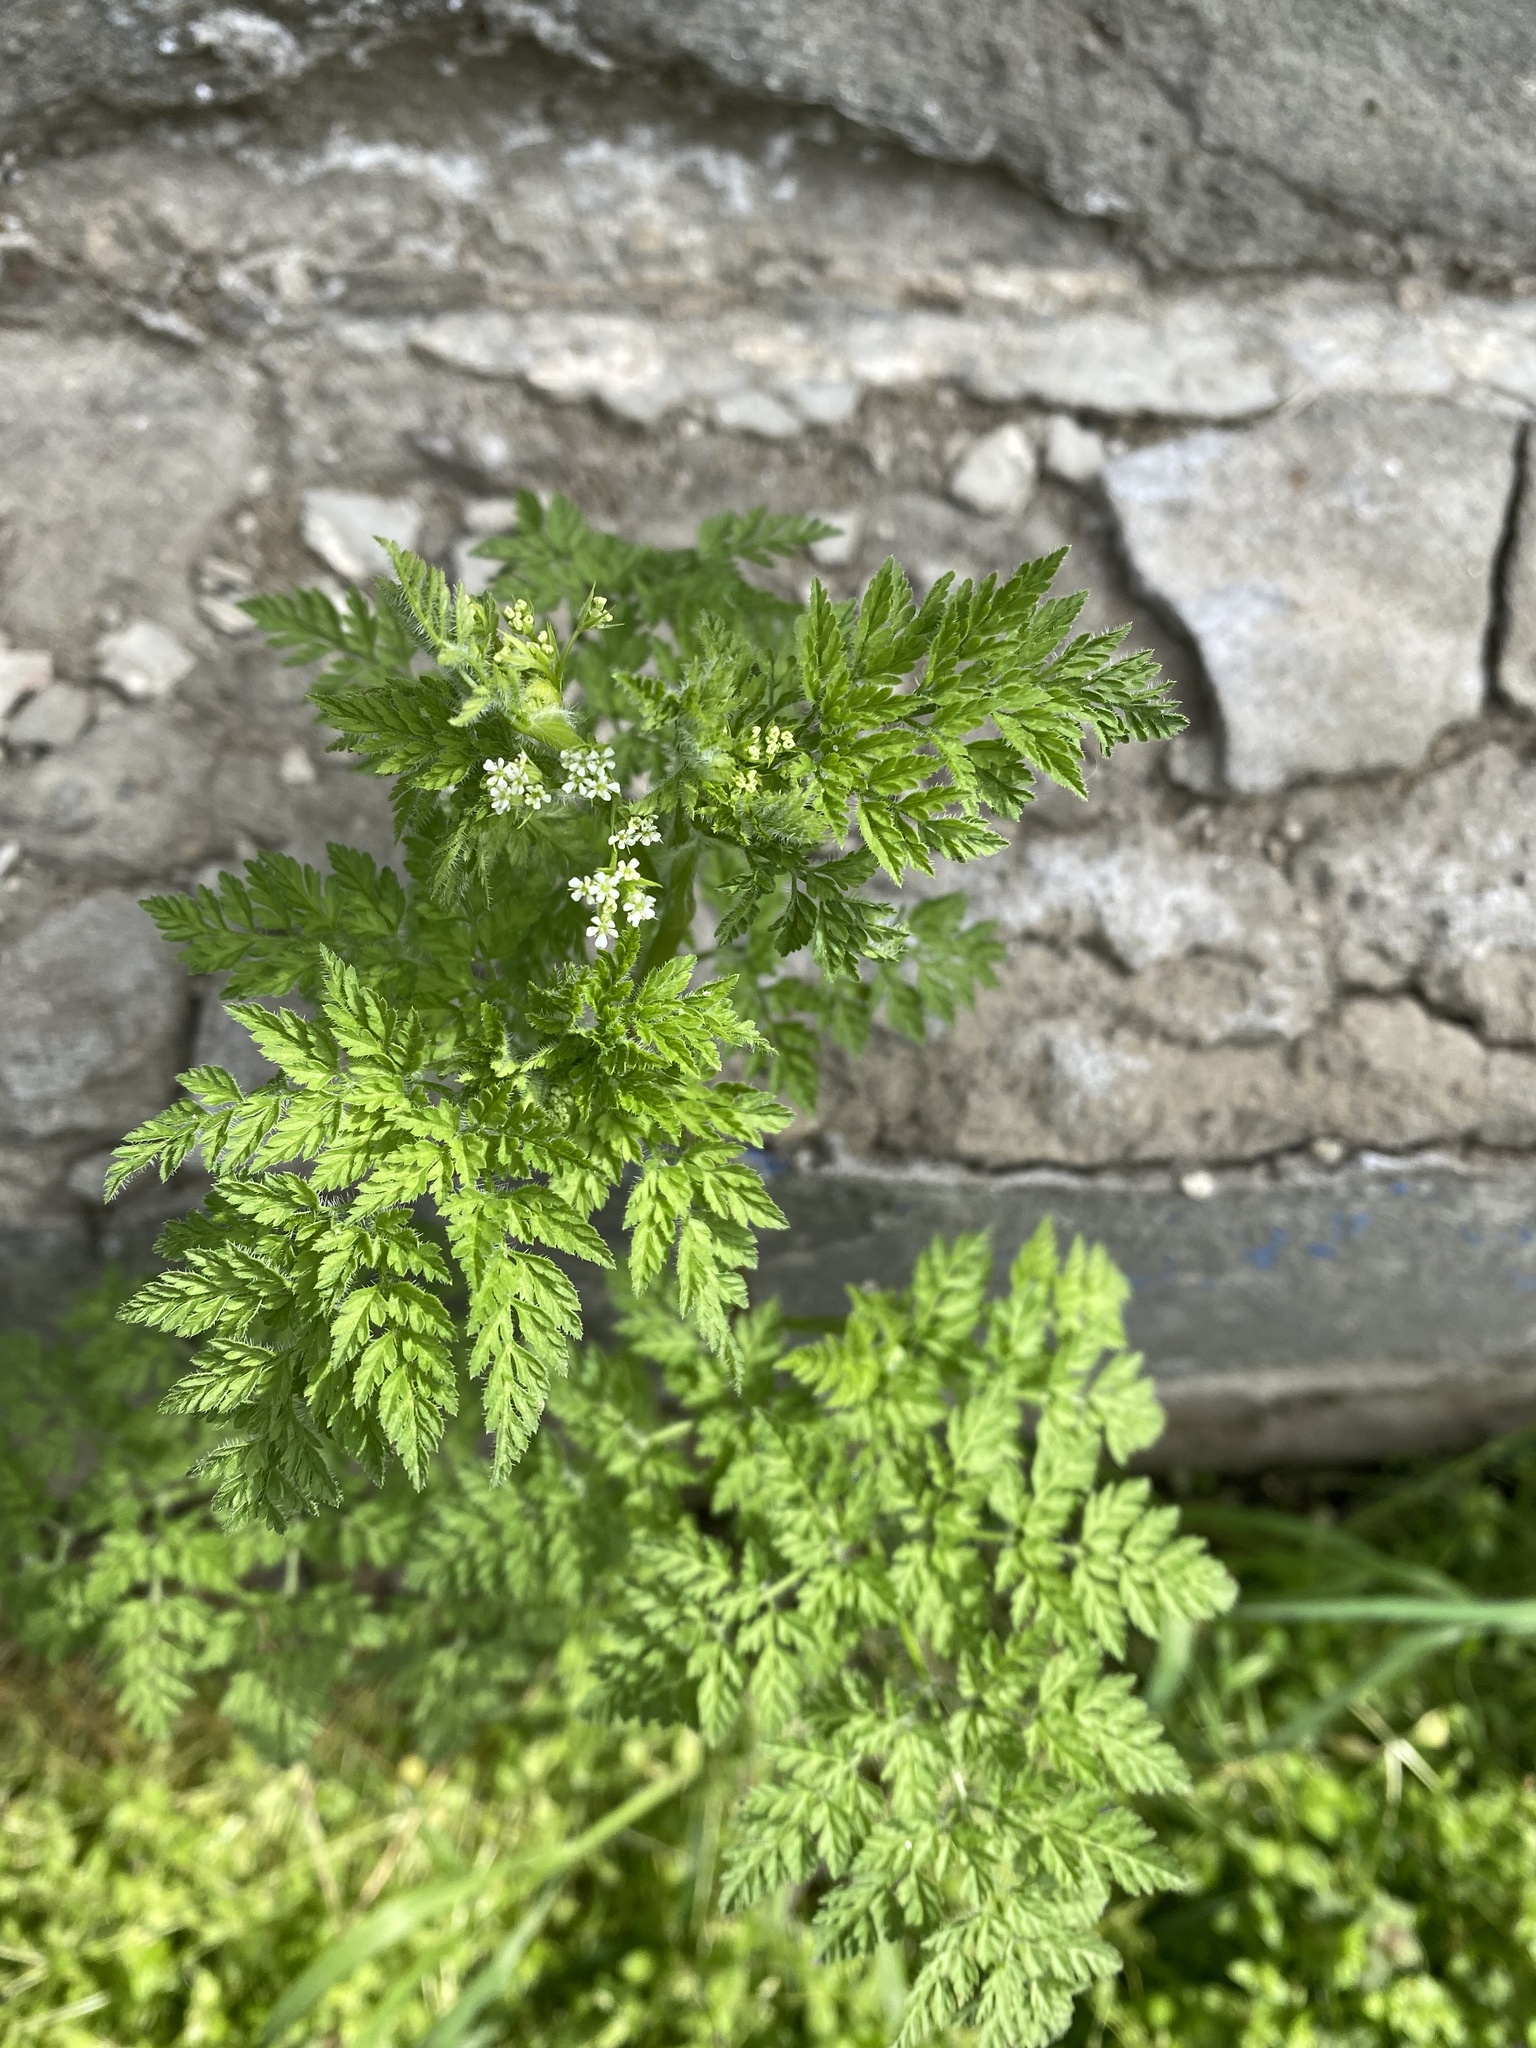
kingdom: Plantae
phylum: Tracheophyta
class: Magnoliopsida
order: Apiales
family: Apiaceae
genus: Anthriscus
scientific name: Anthriscus caucalis
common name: Bur chervil
